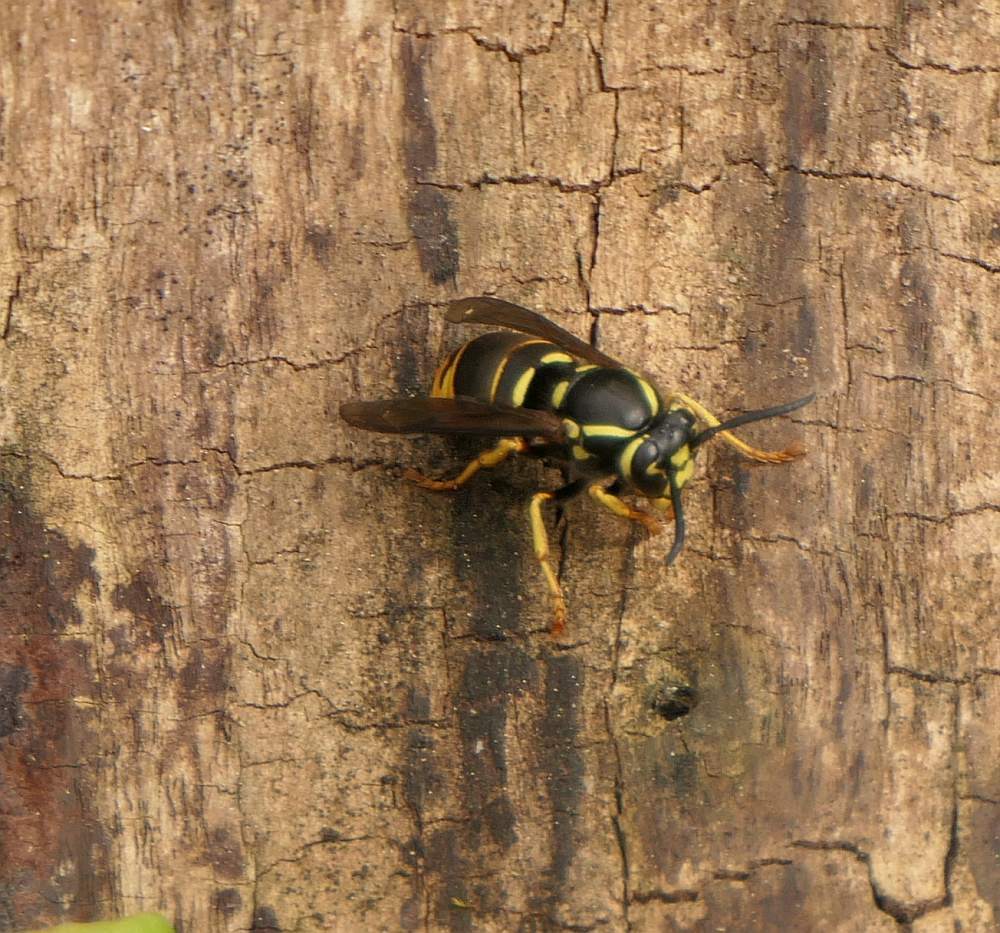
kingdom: Animalia
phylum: Arthropoda
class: Insecta
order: Hymenoptera
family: Vespidae
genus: Vespula
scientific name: Vespula vidua
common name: Widow yellowjacket
